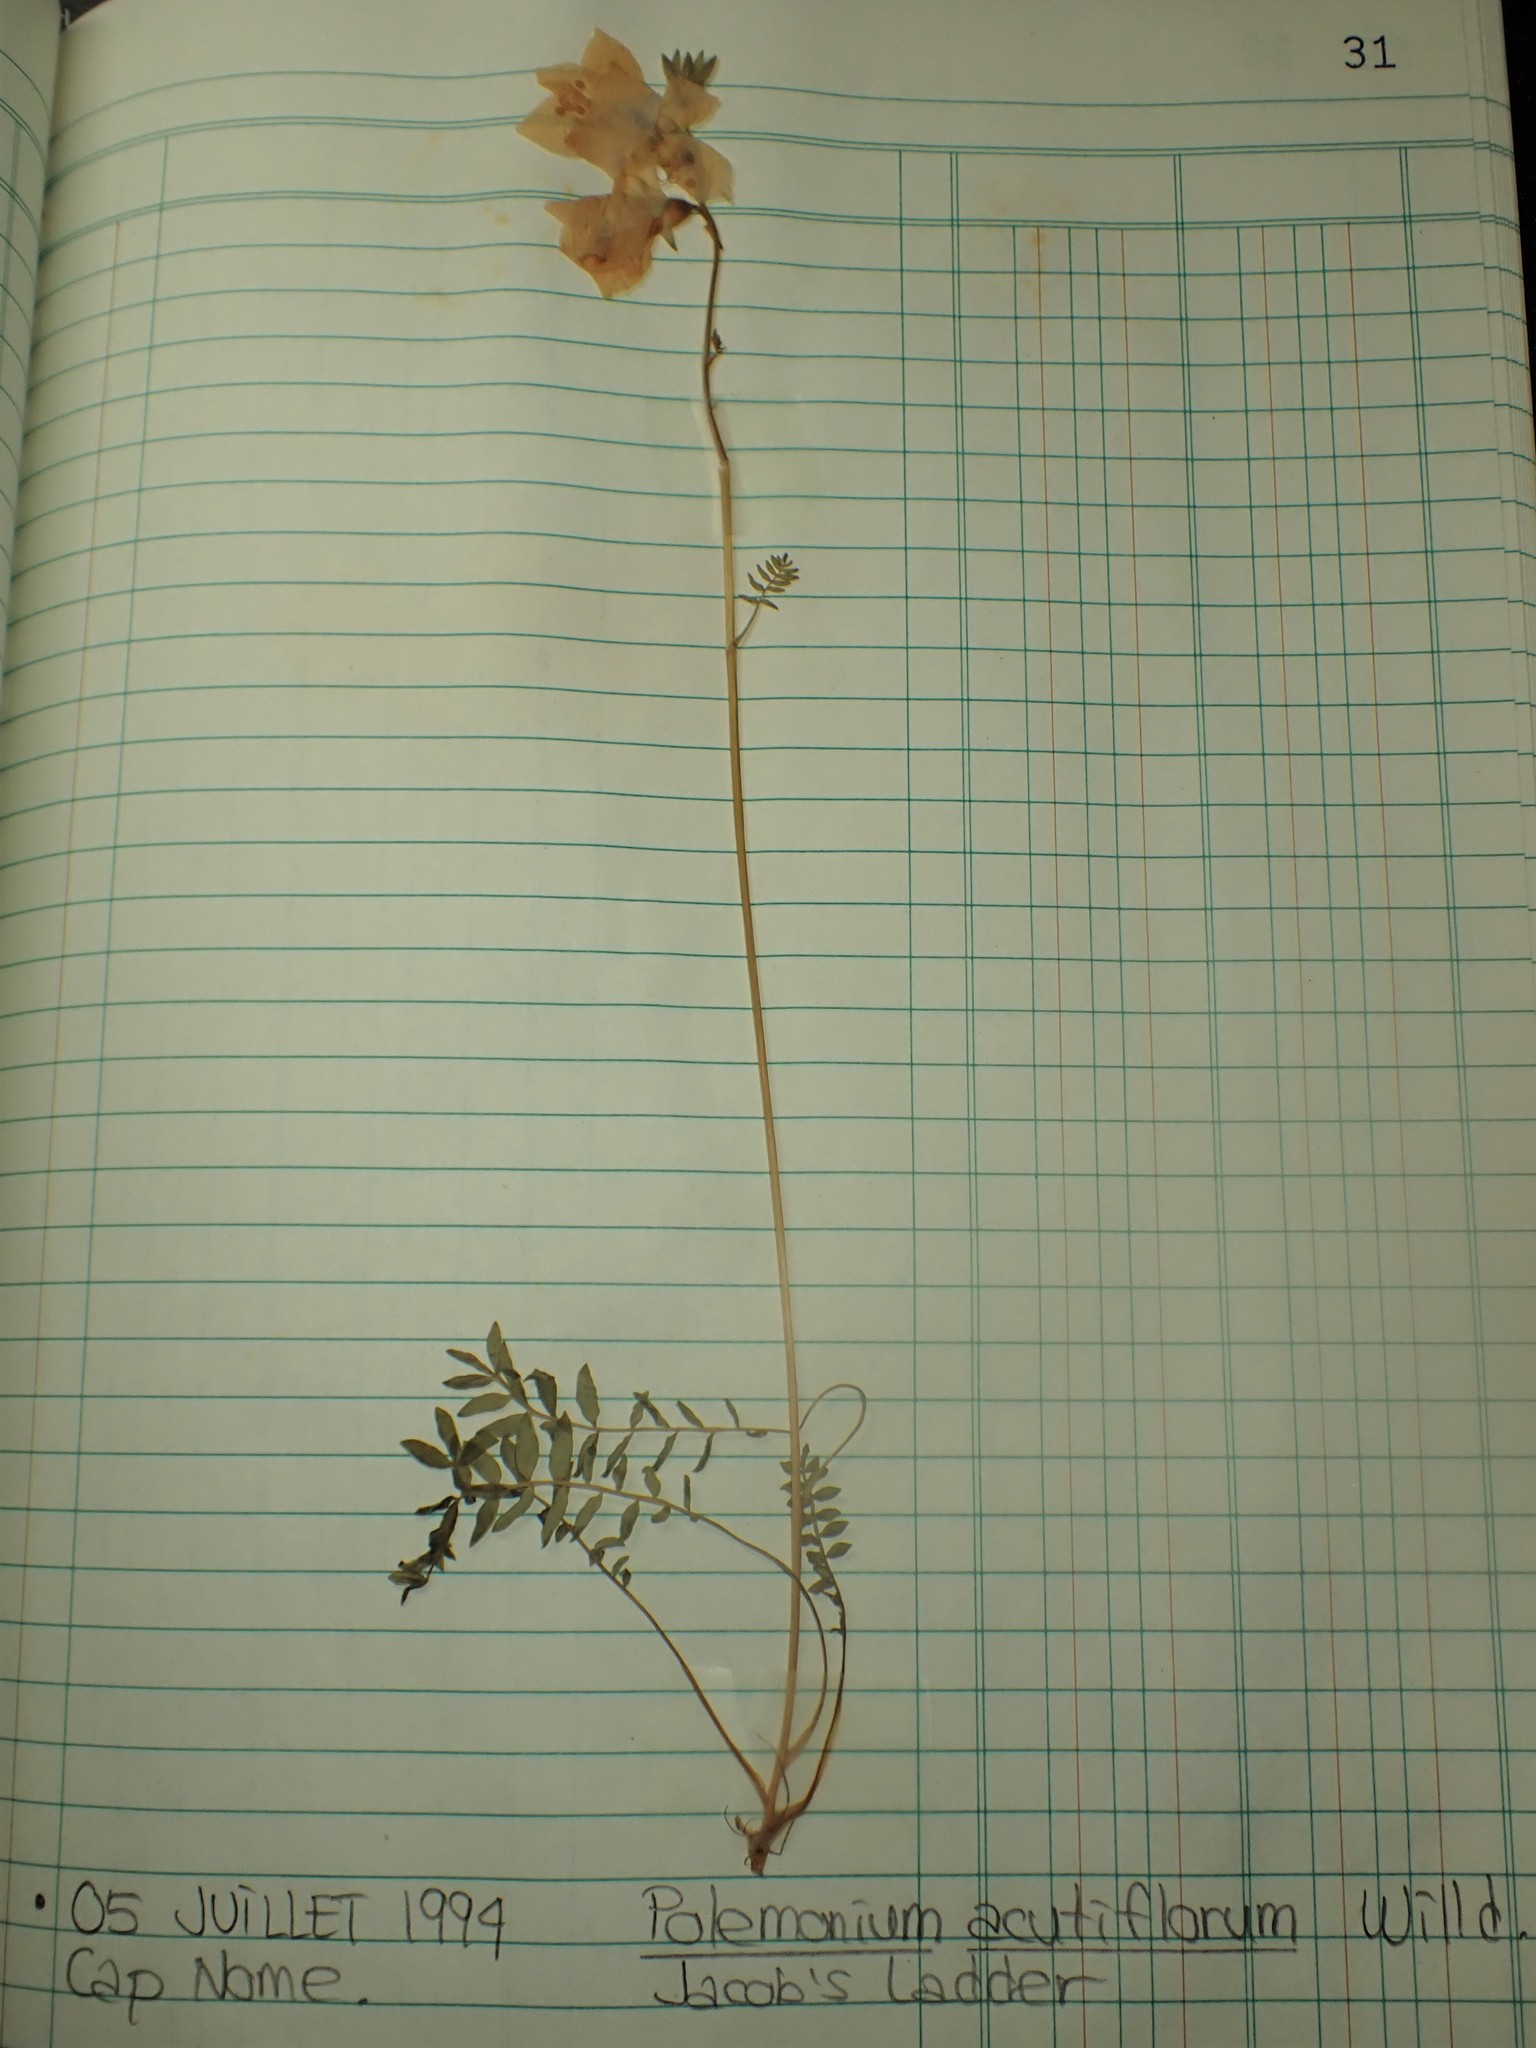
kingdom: Plantae
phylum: Tracheophyta
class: Magnoliopsida
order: Ericales
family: Polemoniaceae
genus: Polemonium
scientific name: Polemonium acutiflorum
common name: Tall jacob's-ladder
